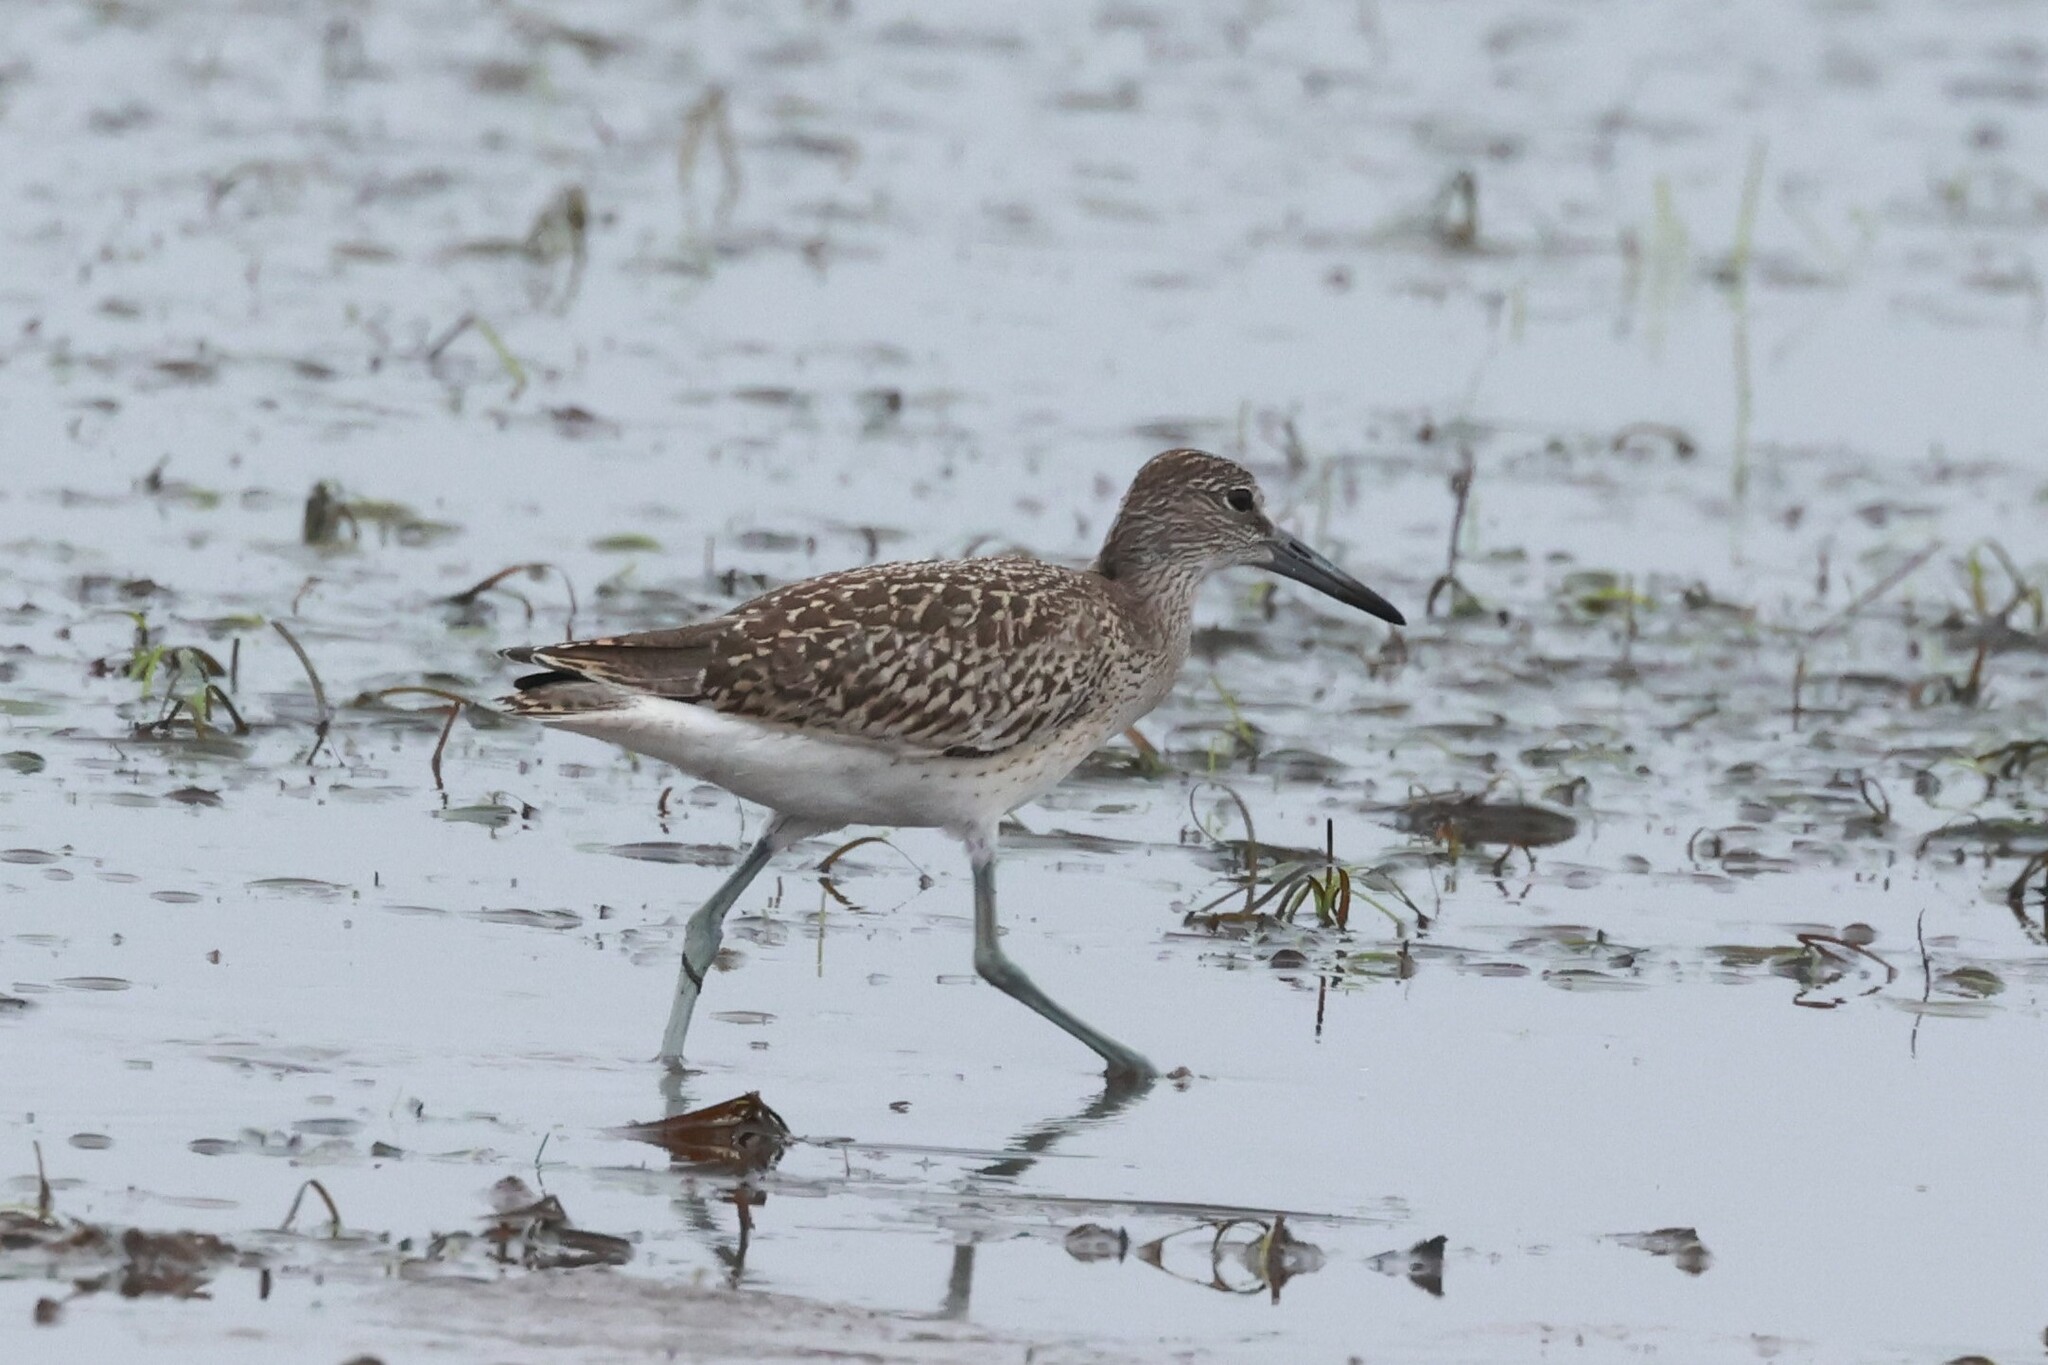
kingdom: Animalia
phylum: Chordata
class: Aves
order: Charadriiformes
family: Scolopacidae
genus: Tringa
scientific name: Tringa semipalmata
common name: Willet
